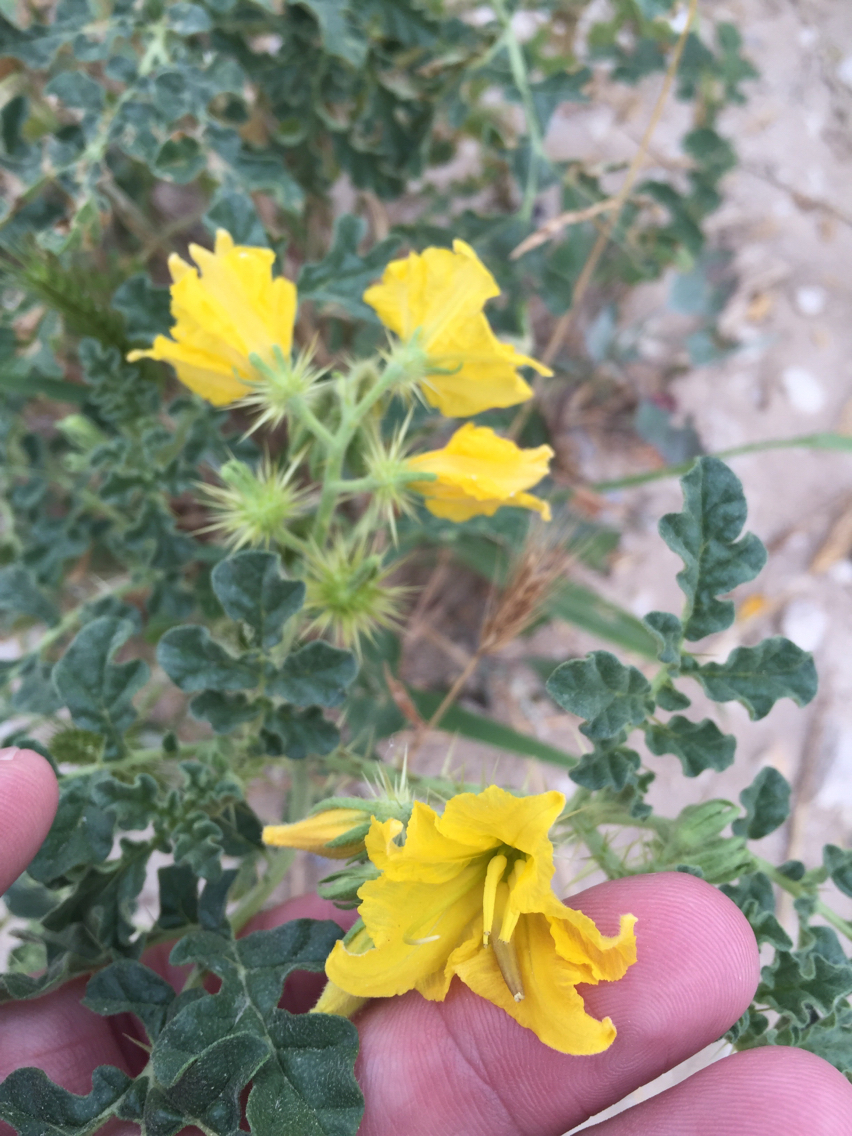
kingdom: Plantae
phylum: Tracheophyta
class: Magnoliopsida
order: Solanales
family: Solanaceae
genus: Solanum
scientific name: Solanum angustifolium
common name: Buffalobur nightshade
